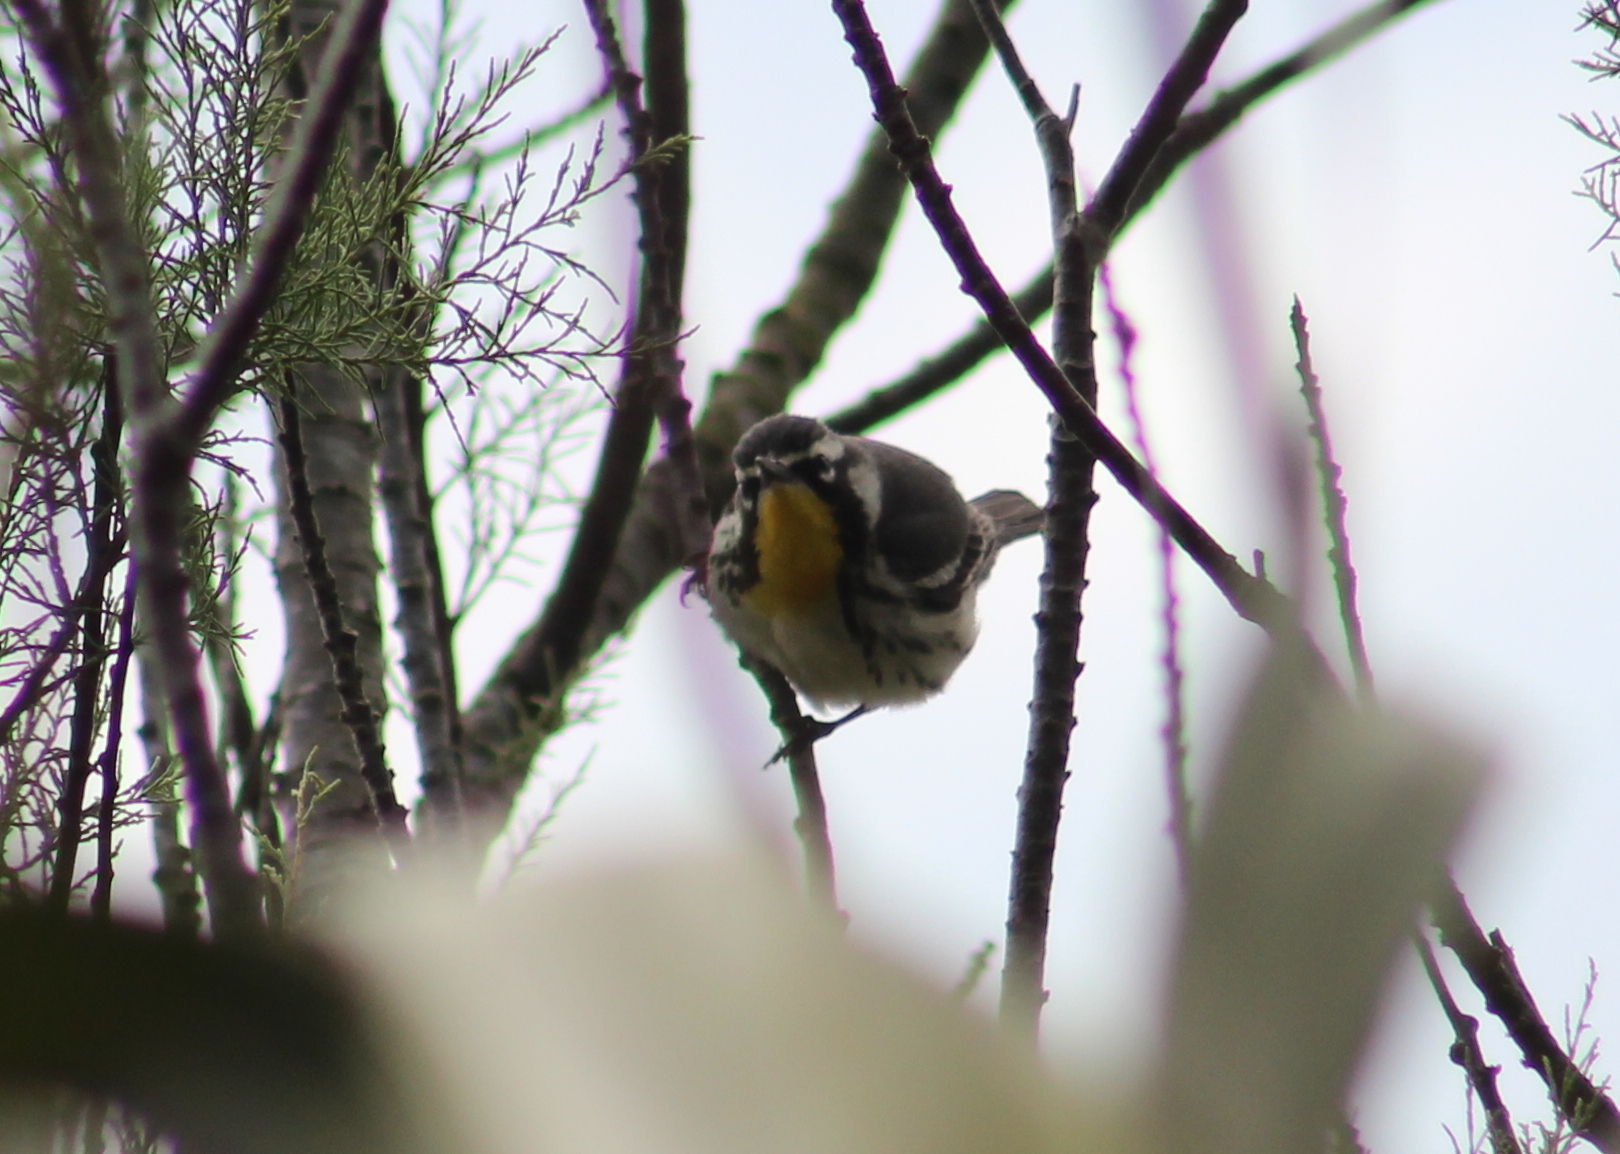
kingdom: Animalia
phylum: Chordata
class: Aves
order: Passeriformes
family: Parulidae
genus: Setophaga
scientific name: Setophaga dominica
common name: Yellow-throated warbler
